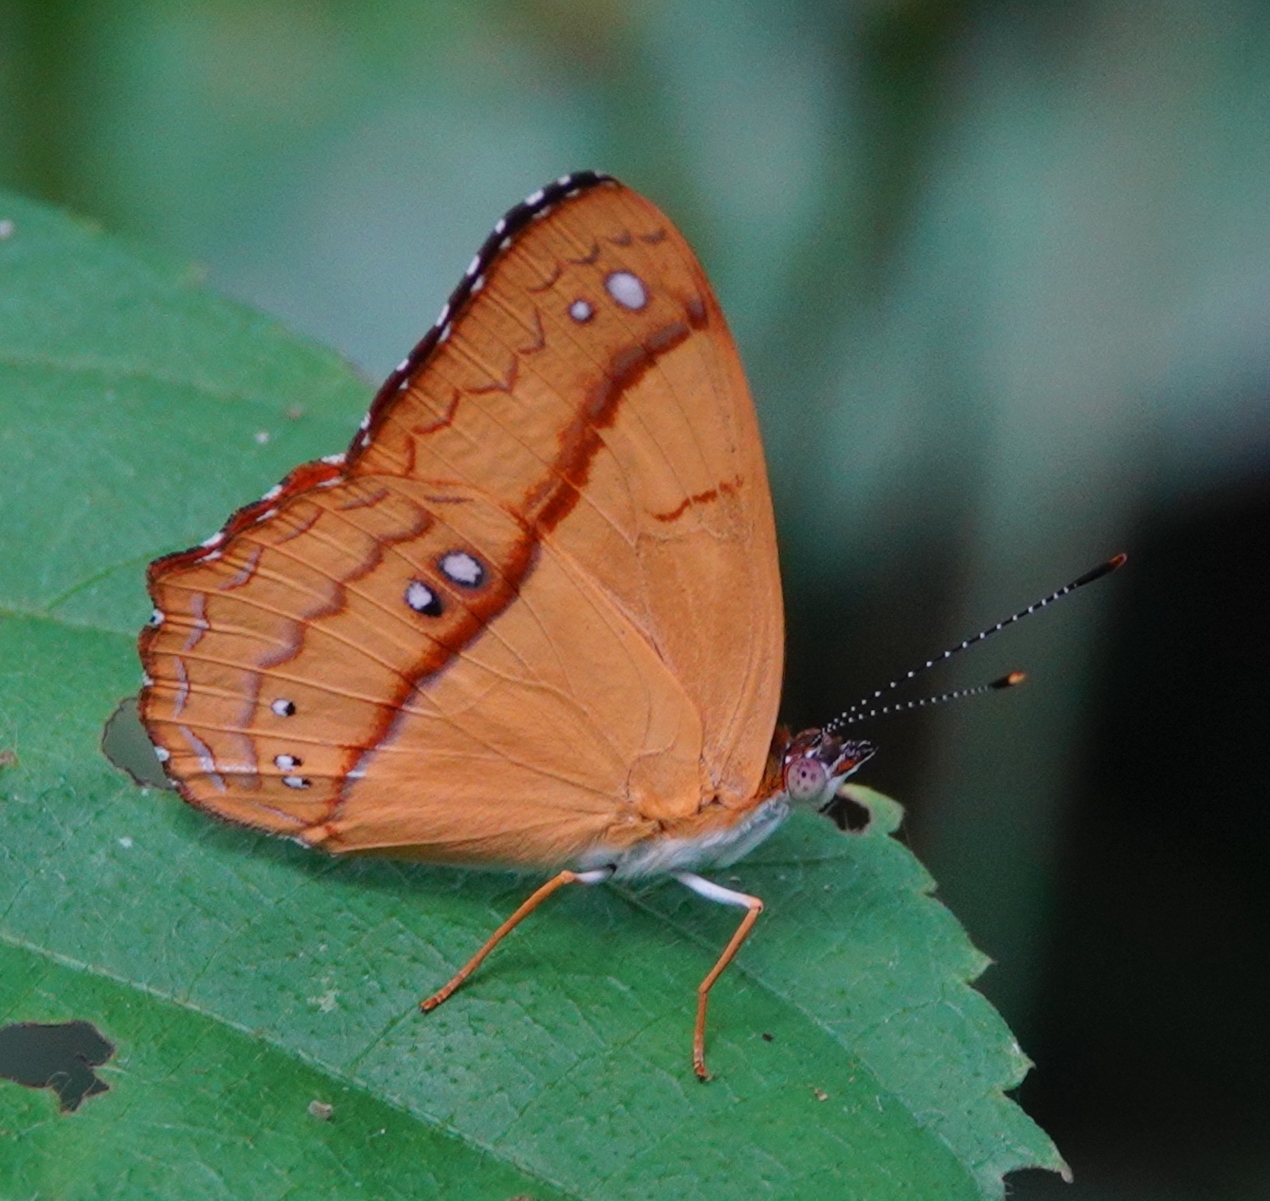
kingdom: Animalia
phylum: Arthropoda
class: Insecta
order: Lepidoptera
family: Nymphalidae
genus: Nica
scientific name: Nica flavilla
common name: Mandarin nica
